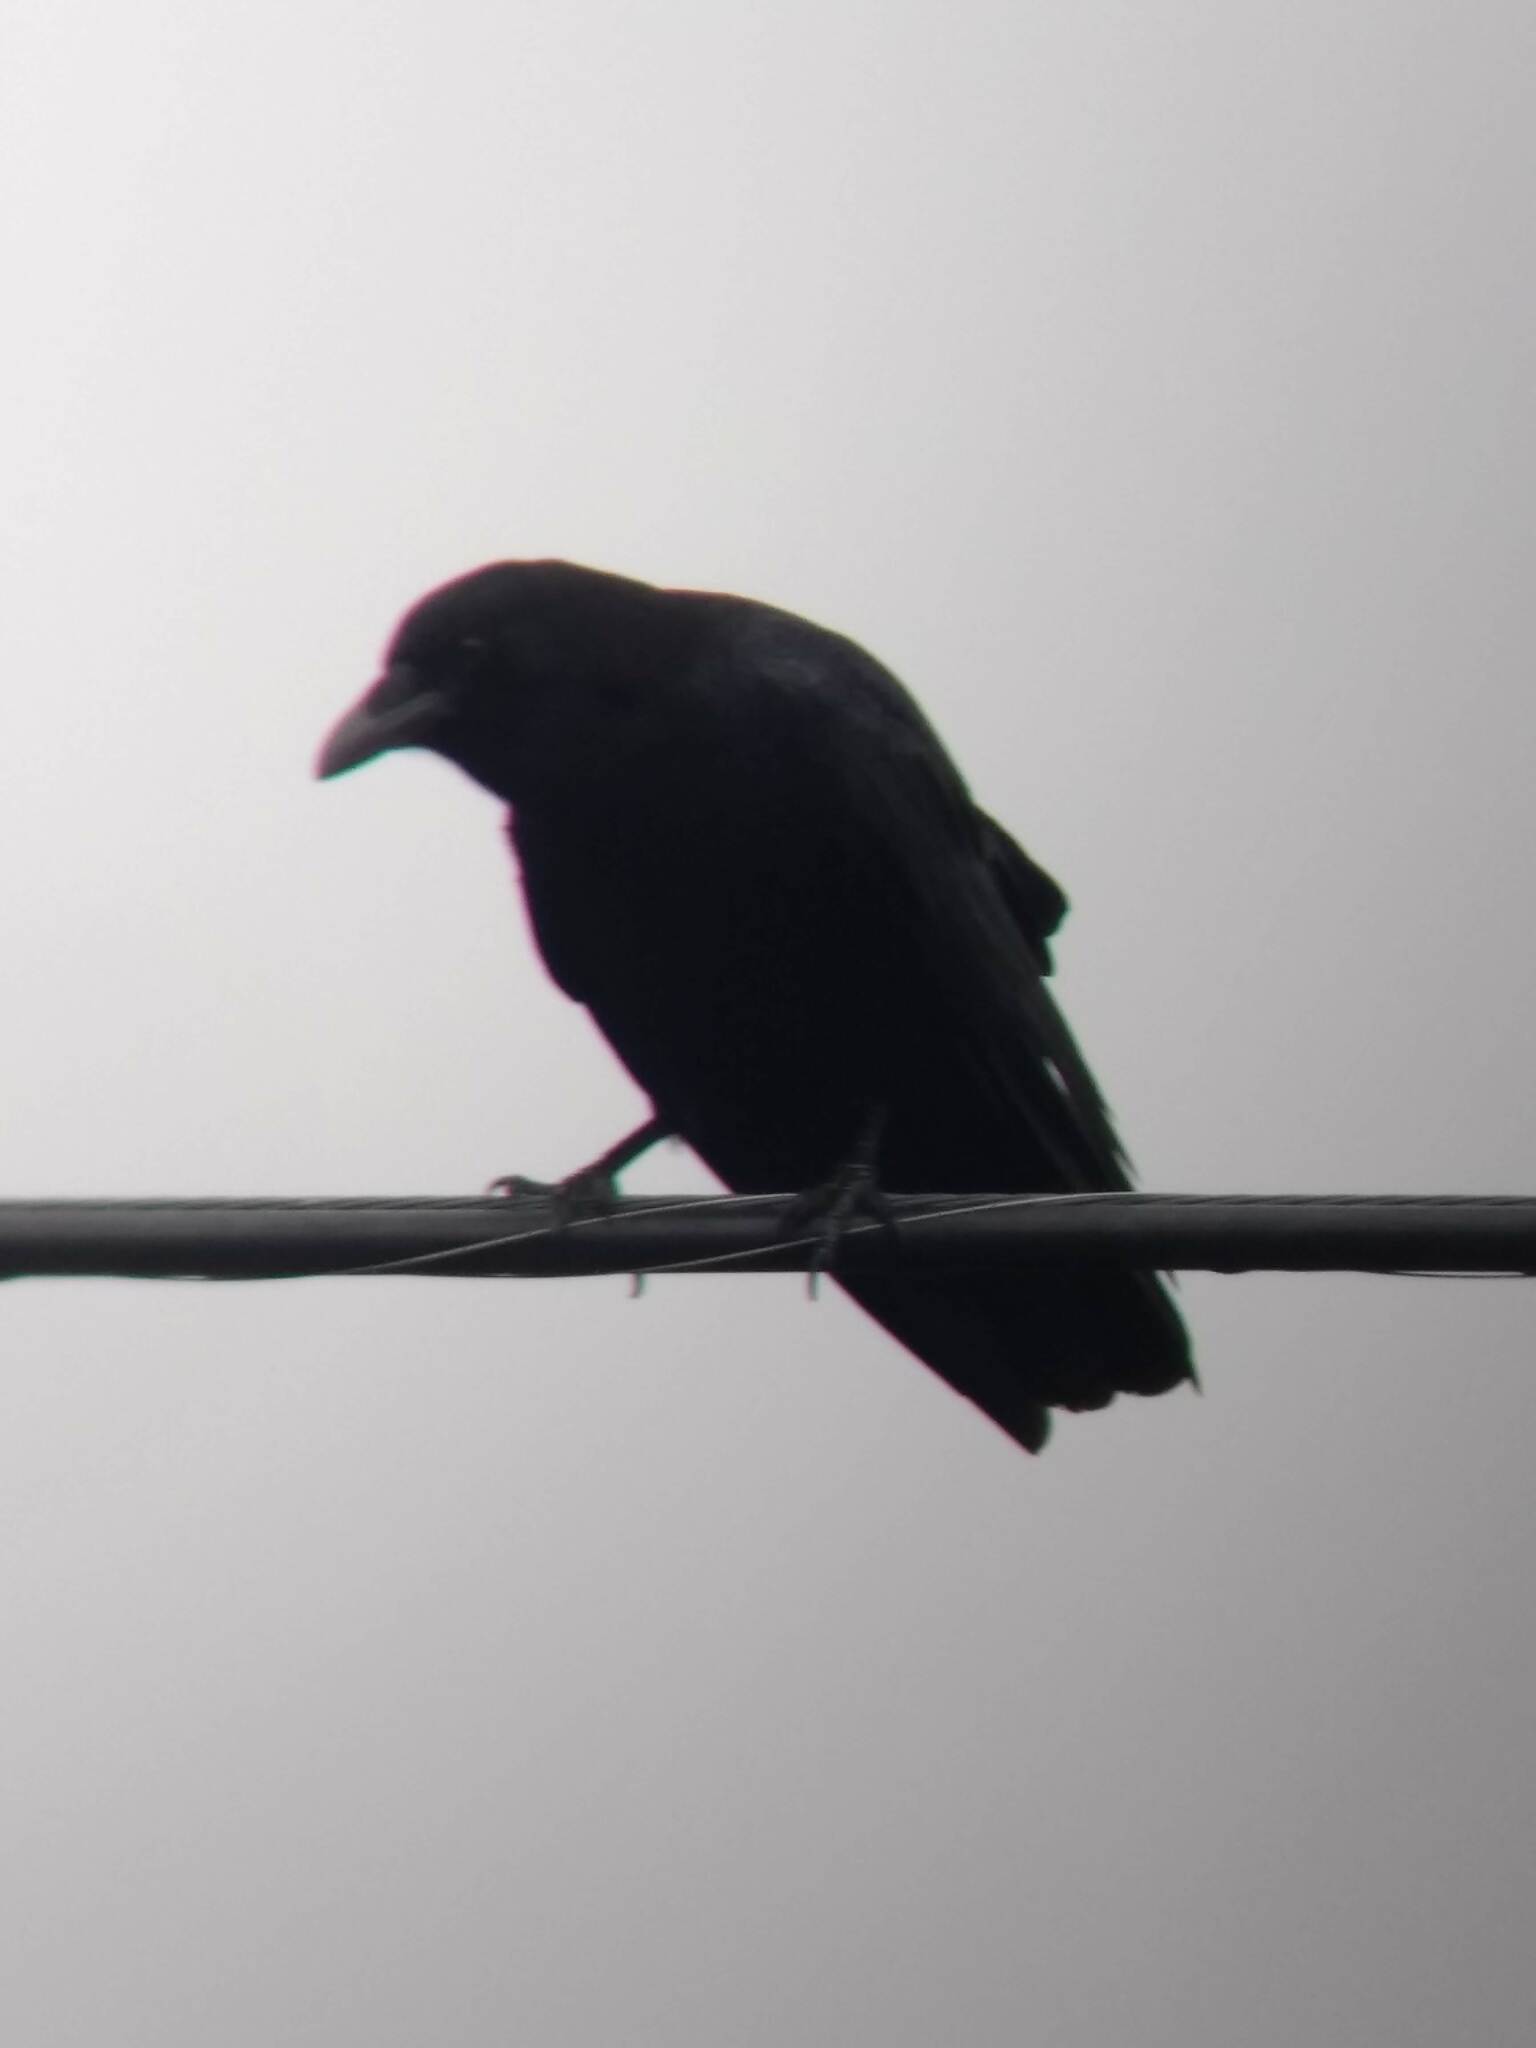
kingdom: Animalia
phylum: Chordata
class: Aves
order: Passeriformes
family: Corvidae
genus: Corvus
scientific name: Corvus brachyrhynchos
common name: American crow
